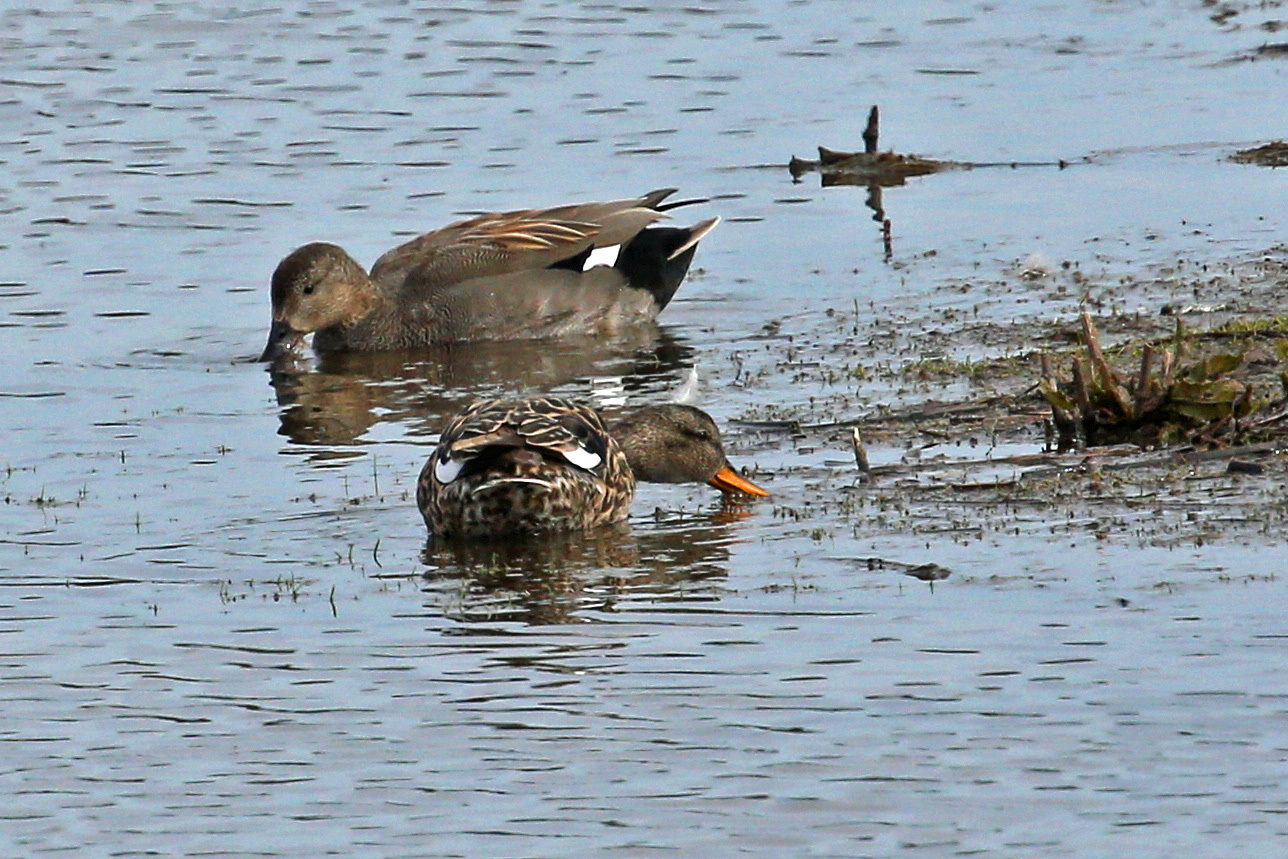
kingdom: Animalia
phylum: Chordata
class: Aves
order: Anseriformes
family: Anatidae
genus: Mareca
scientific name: Mareca strepera
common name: Gadwall
